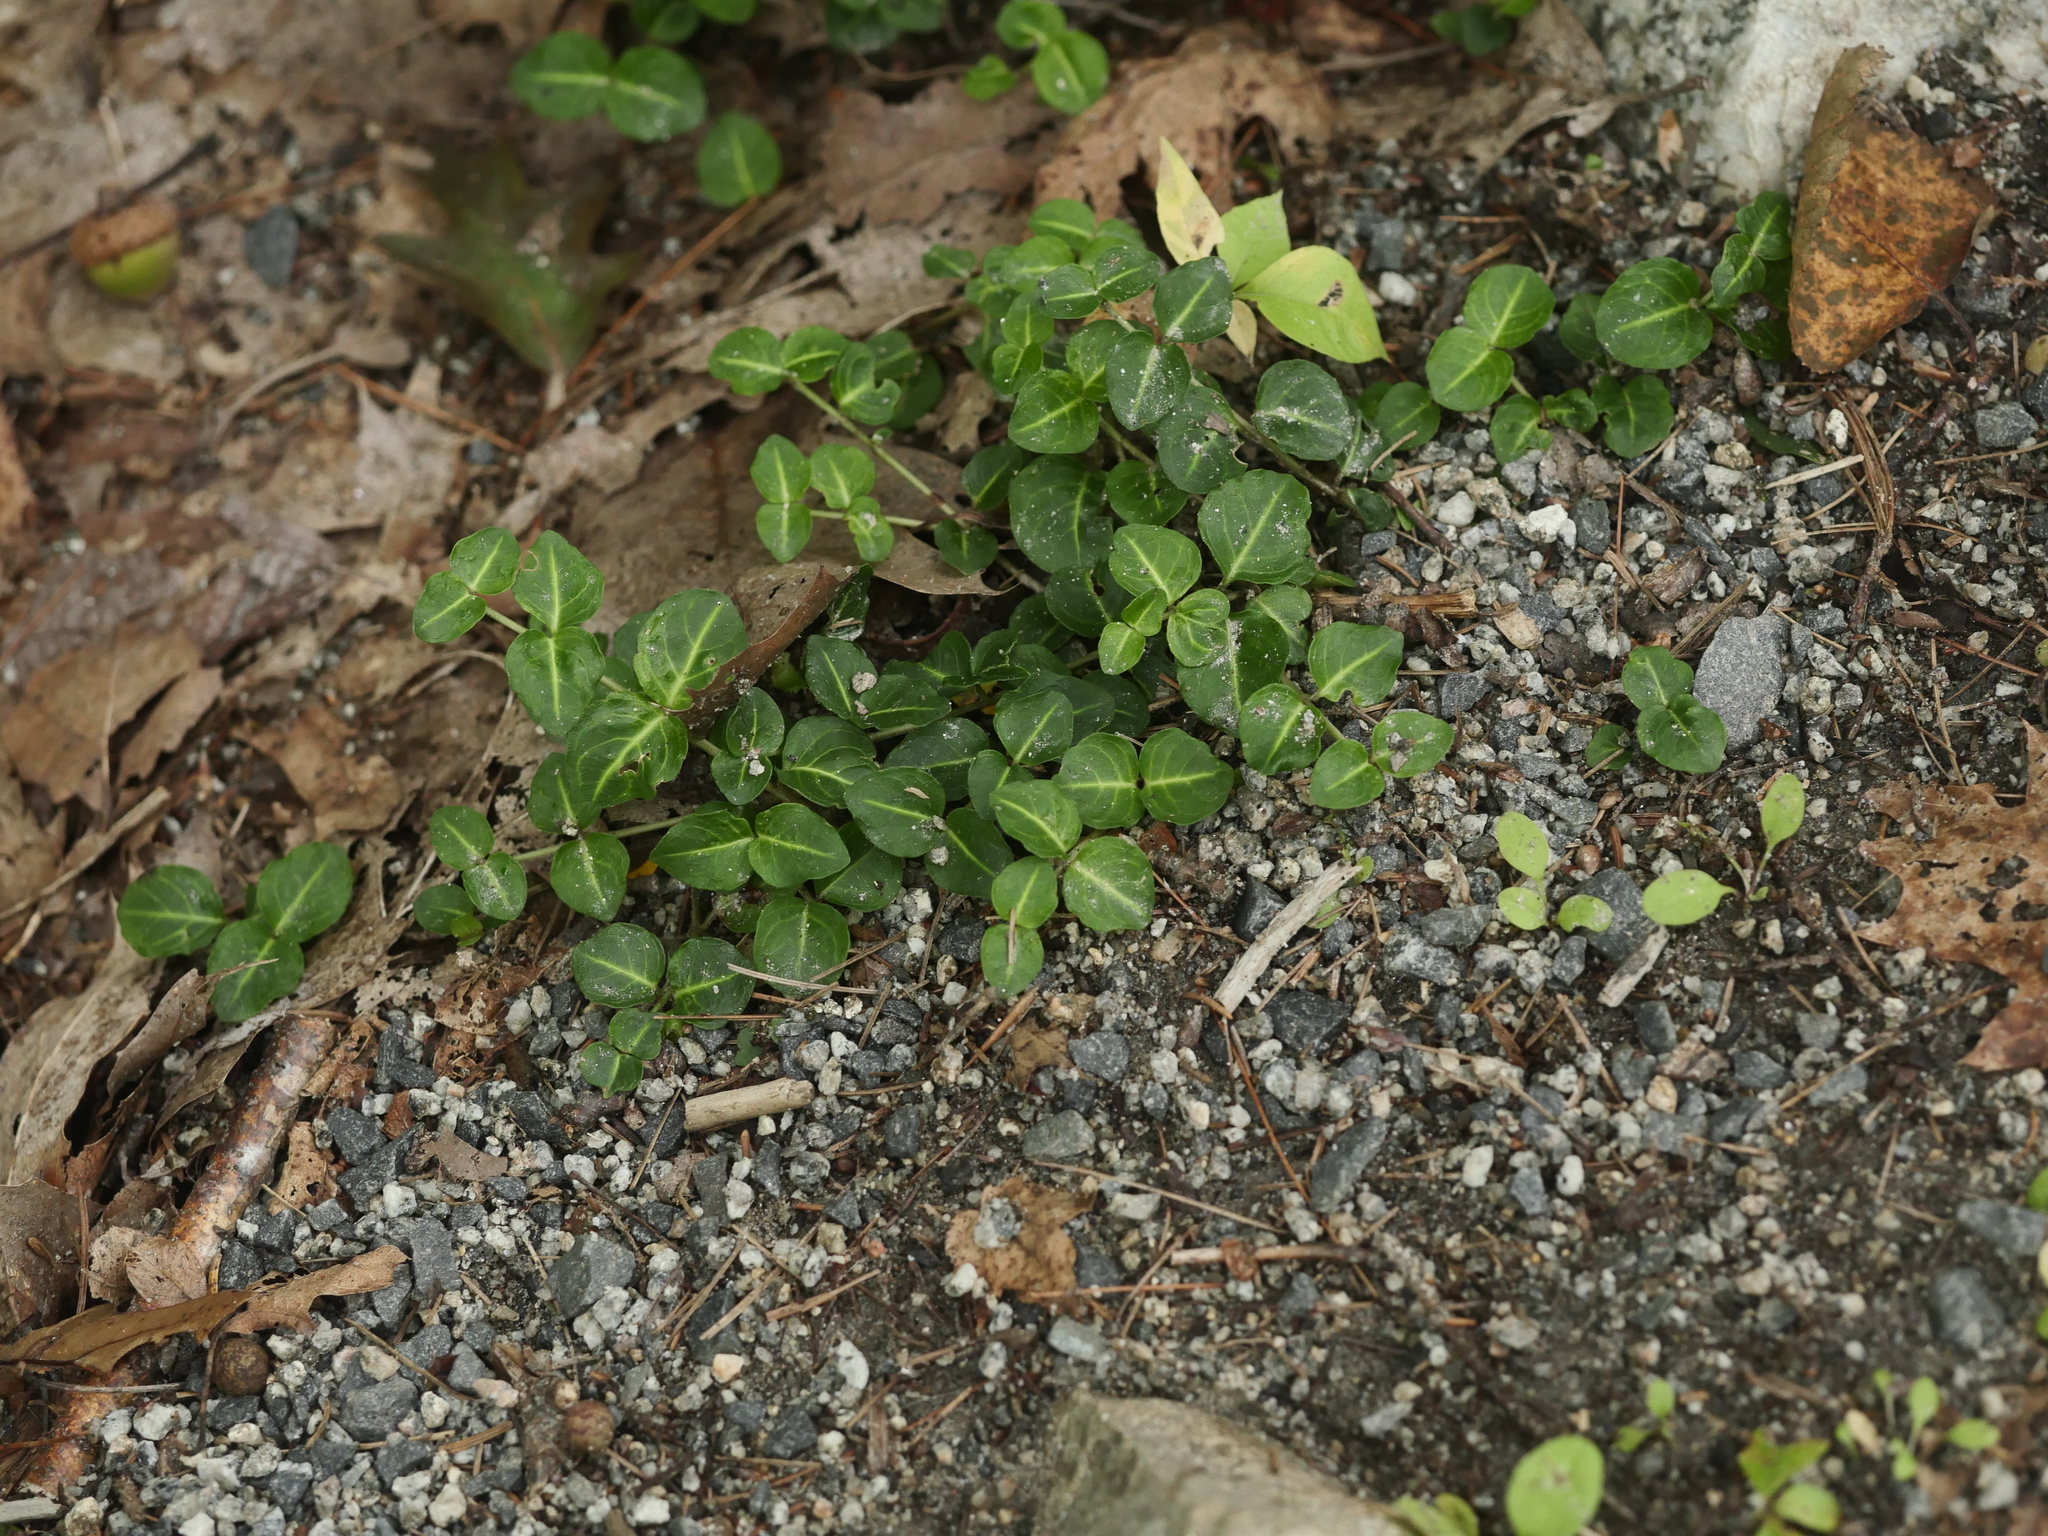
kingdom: Plantae
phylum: Tracheophyta
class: Magnoliopsida
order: Gentianales
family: Rubiaceae
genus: Mitchella
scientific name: Mitchella repens
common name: Partridge-berry
